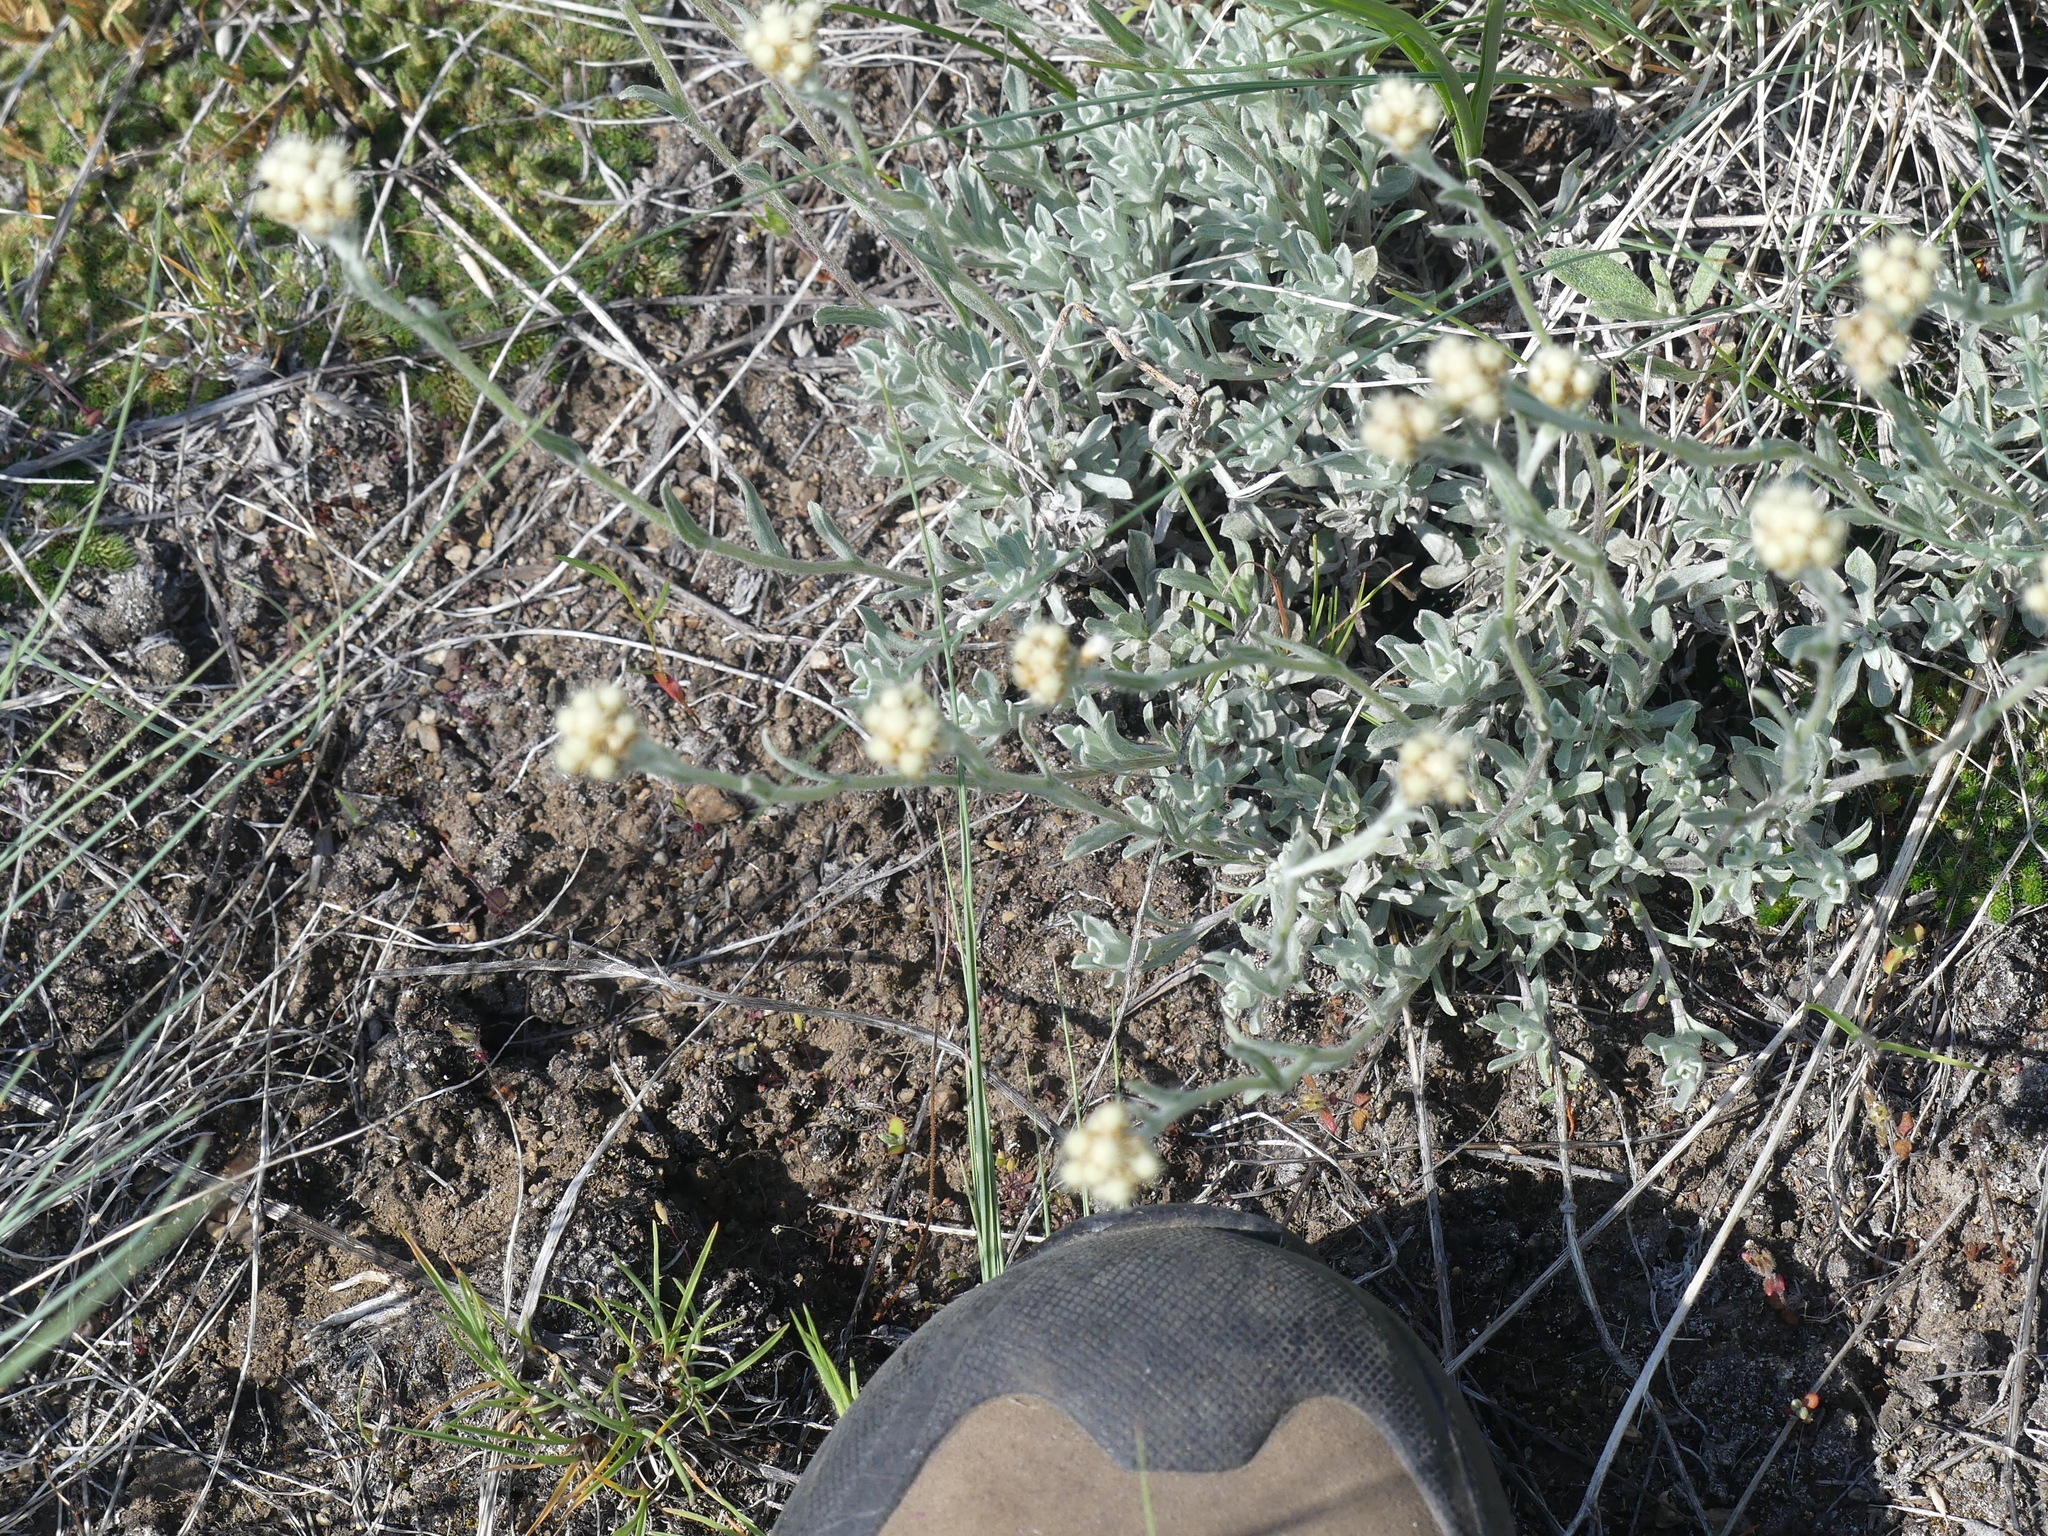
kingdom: Plantae
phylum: Tracheophyta
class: Magnoliopsida
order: Asterales
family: Asteraceae
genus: Antennaria
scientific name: Antennaria umbrinella
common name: Brown pussytoes
